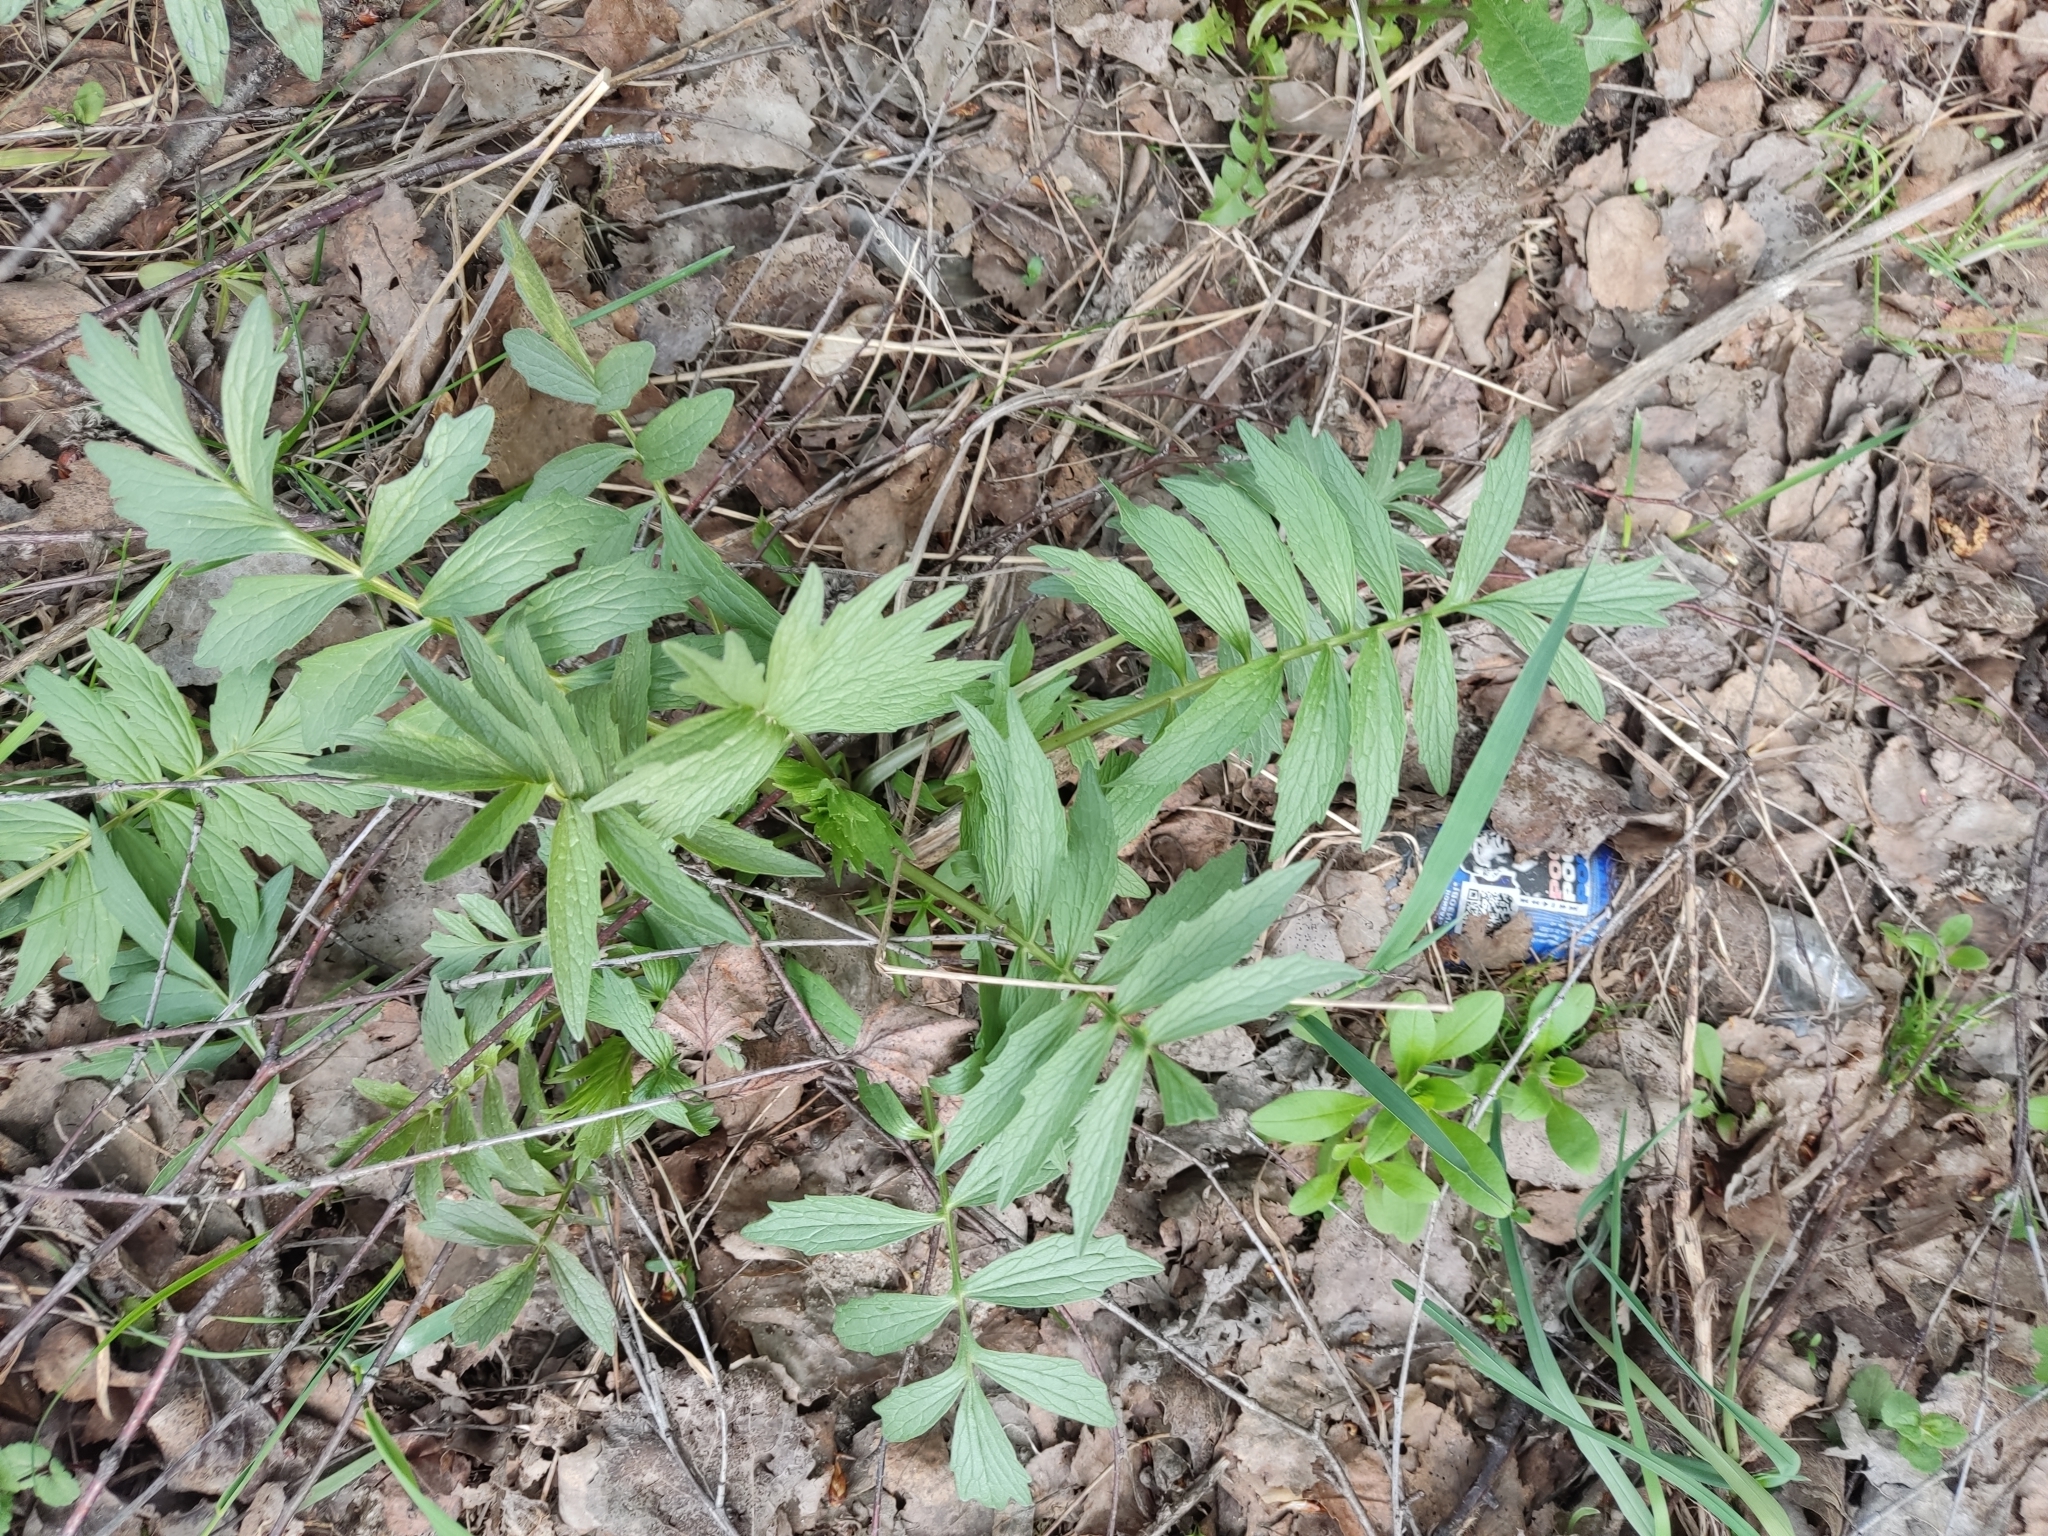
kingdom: Plantae
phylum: Tracheophyta
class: Magnoliopsida
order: Dipsacales
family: Caprifoliaceae
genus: Valeriana
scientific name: Valeriana officinalis
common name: Common valerian
